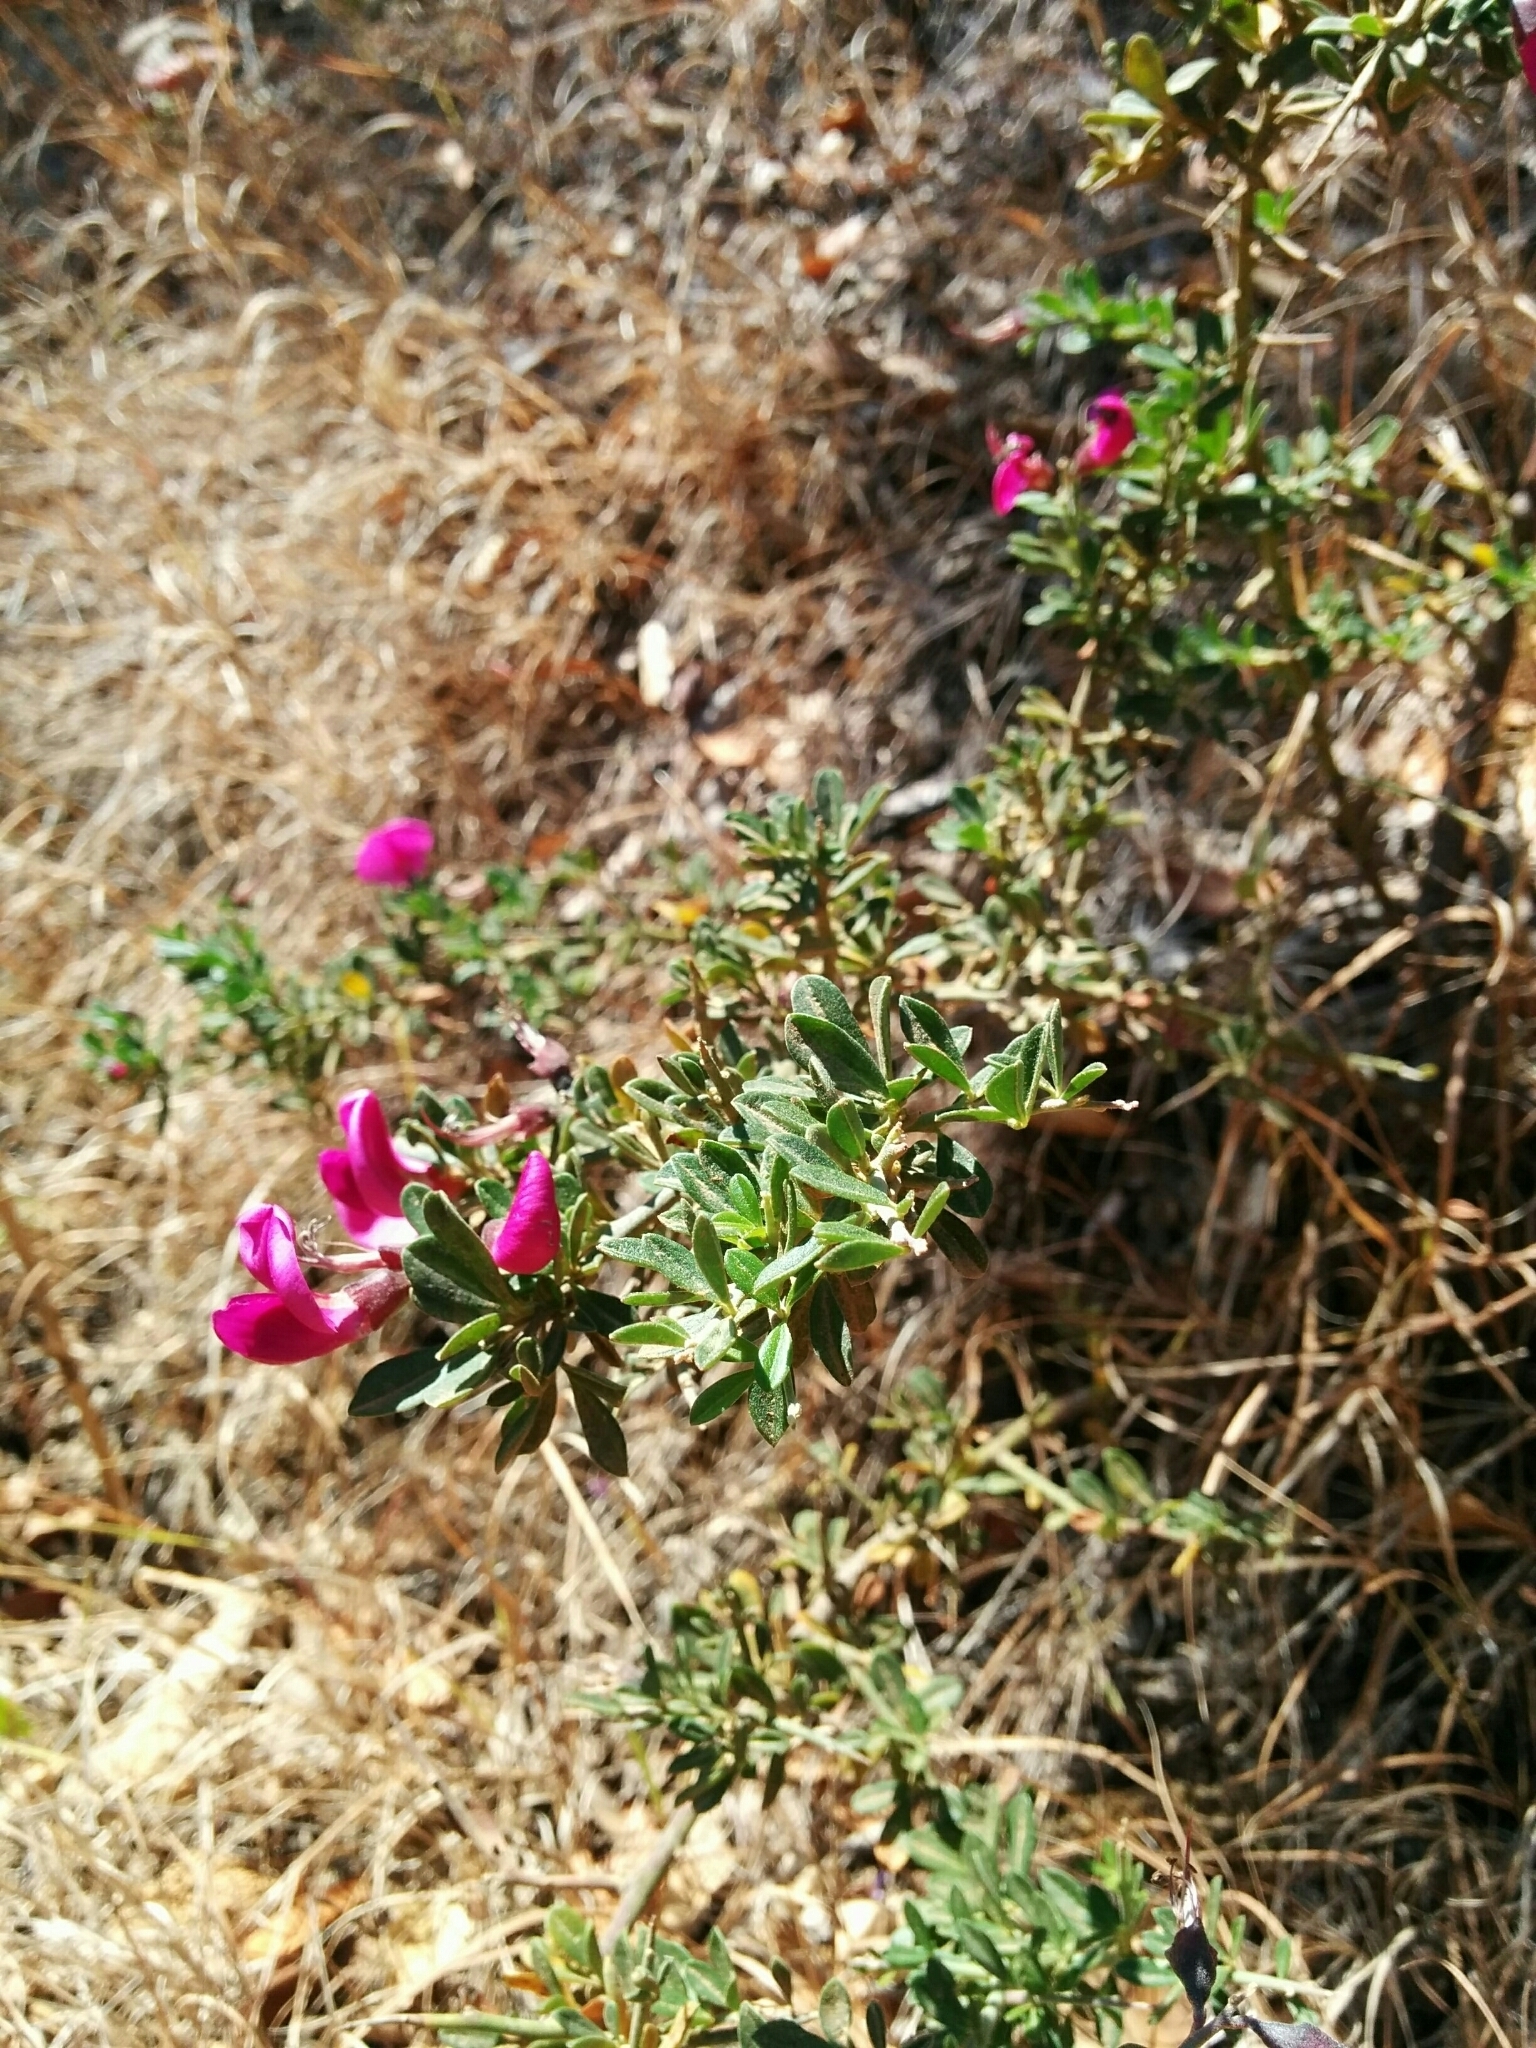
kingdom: Plantae
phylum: Tracheophyta
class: Magnoliopsida
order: Fabales
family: Fabaceae
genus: Pickeringia
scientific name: Pickeringia montana
